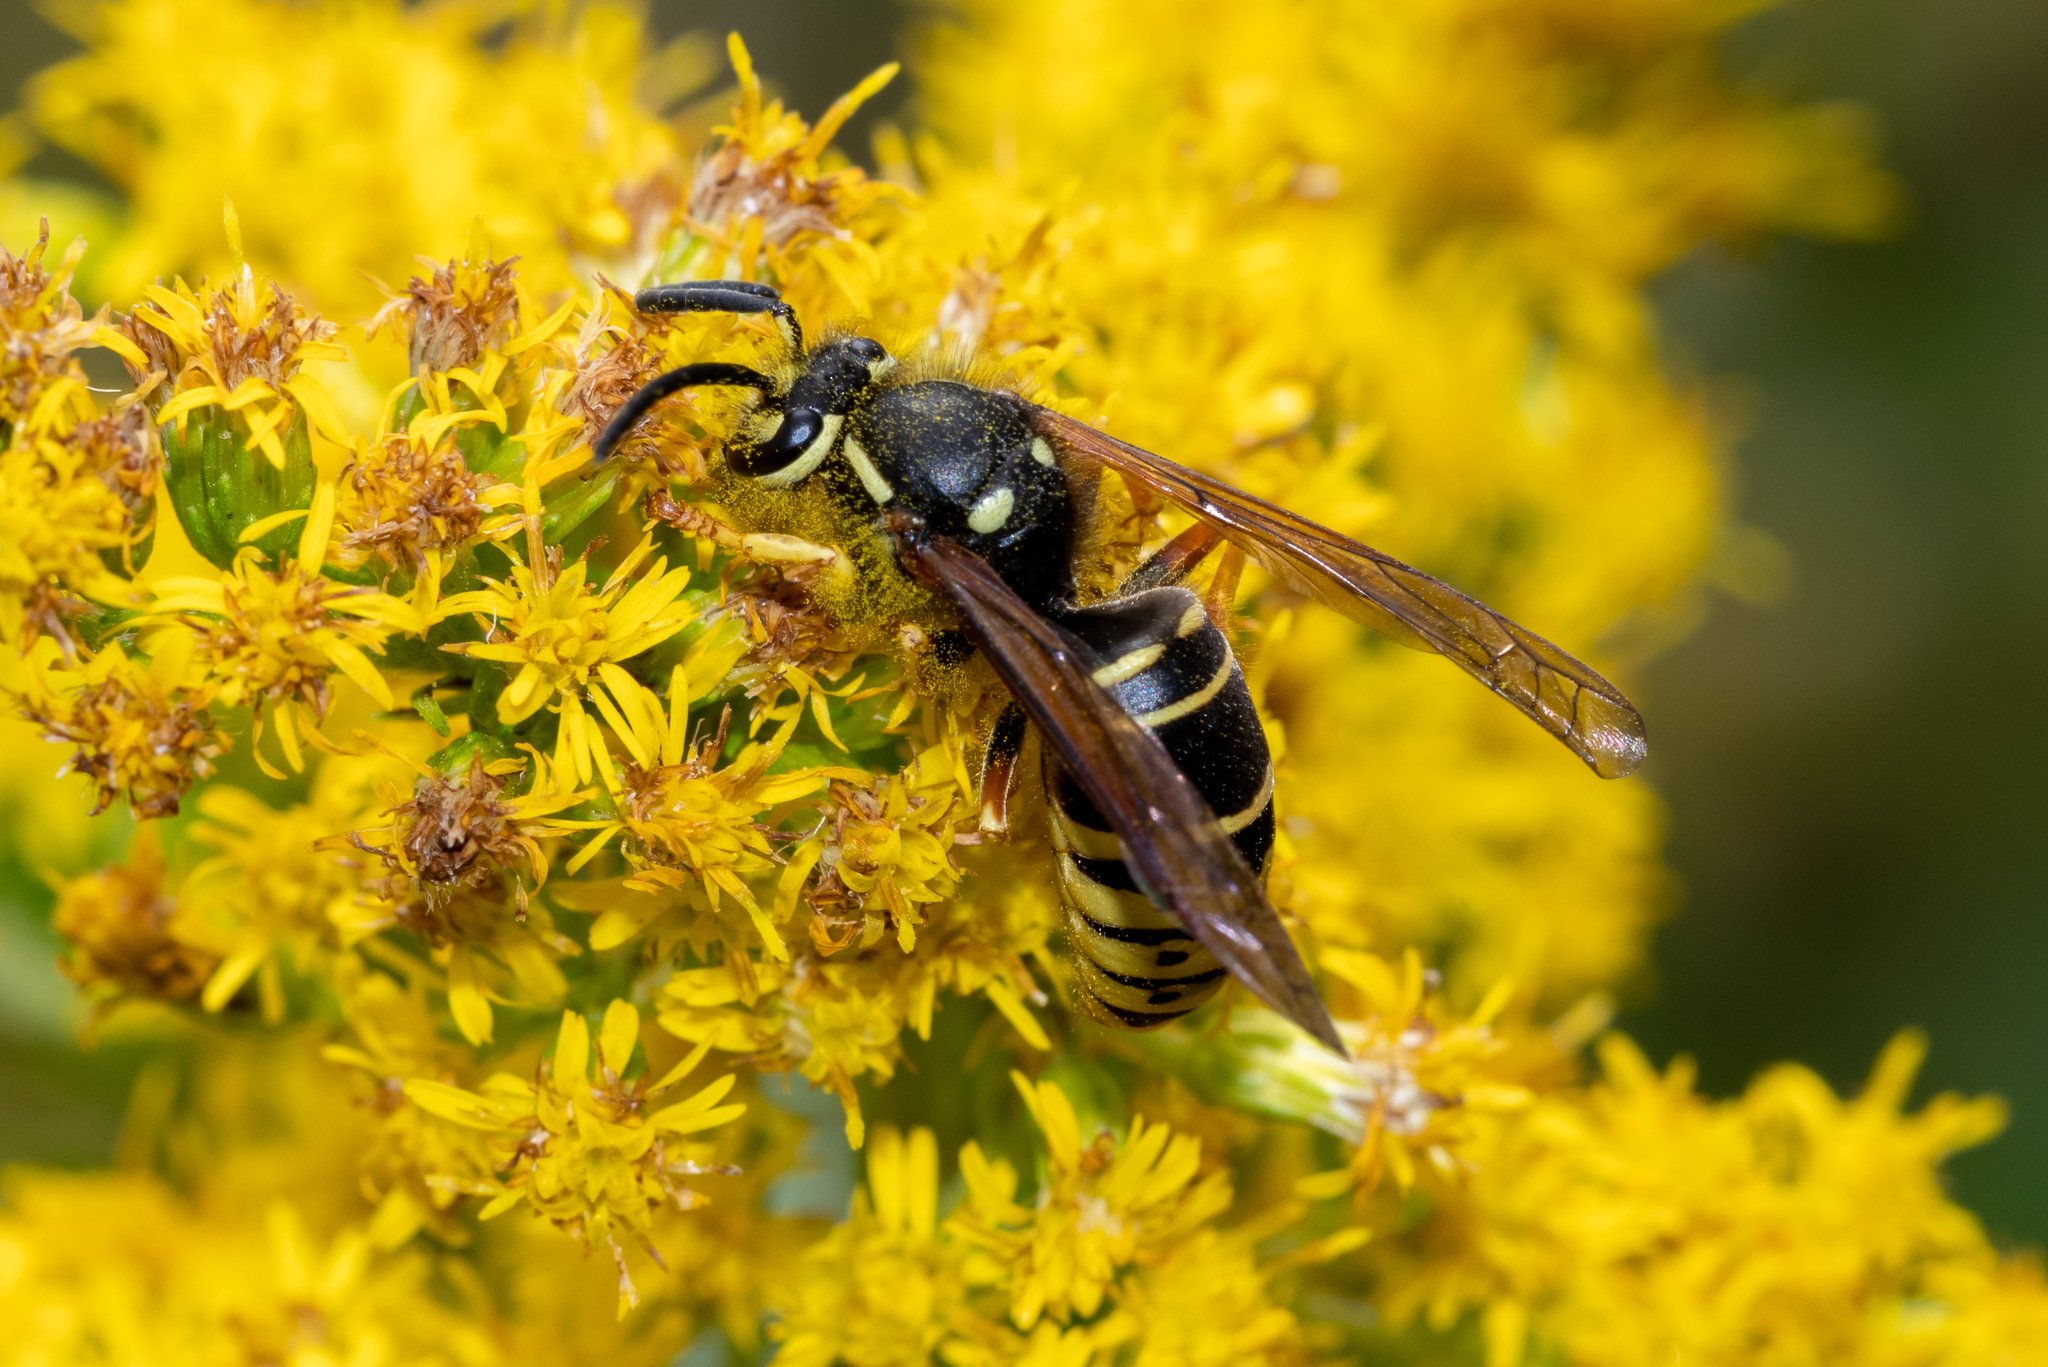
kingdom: Animalia
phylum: Arthropoda
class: Insecta
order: Hymenoptera
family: Vespidae
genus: Vespula
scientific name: Vespula vidua
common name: Widow yellowjacket
